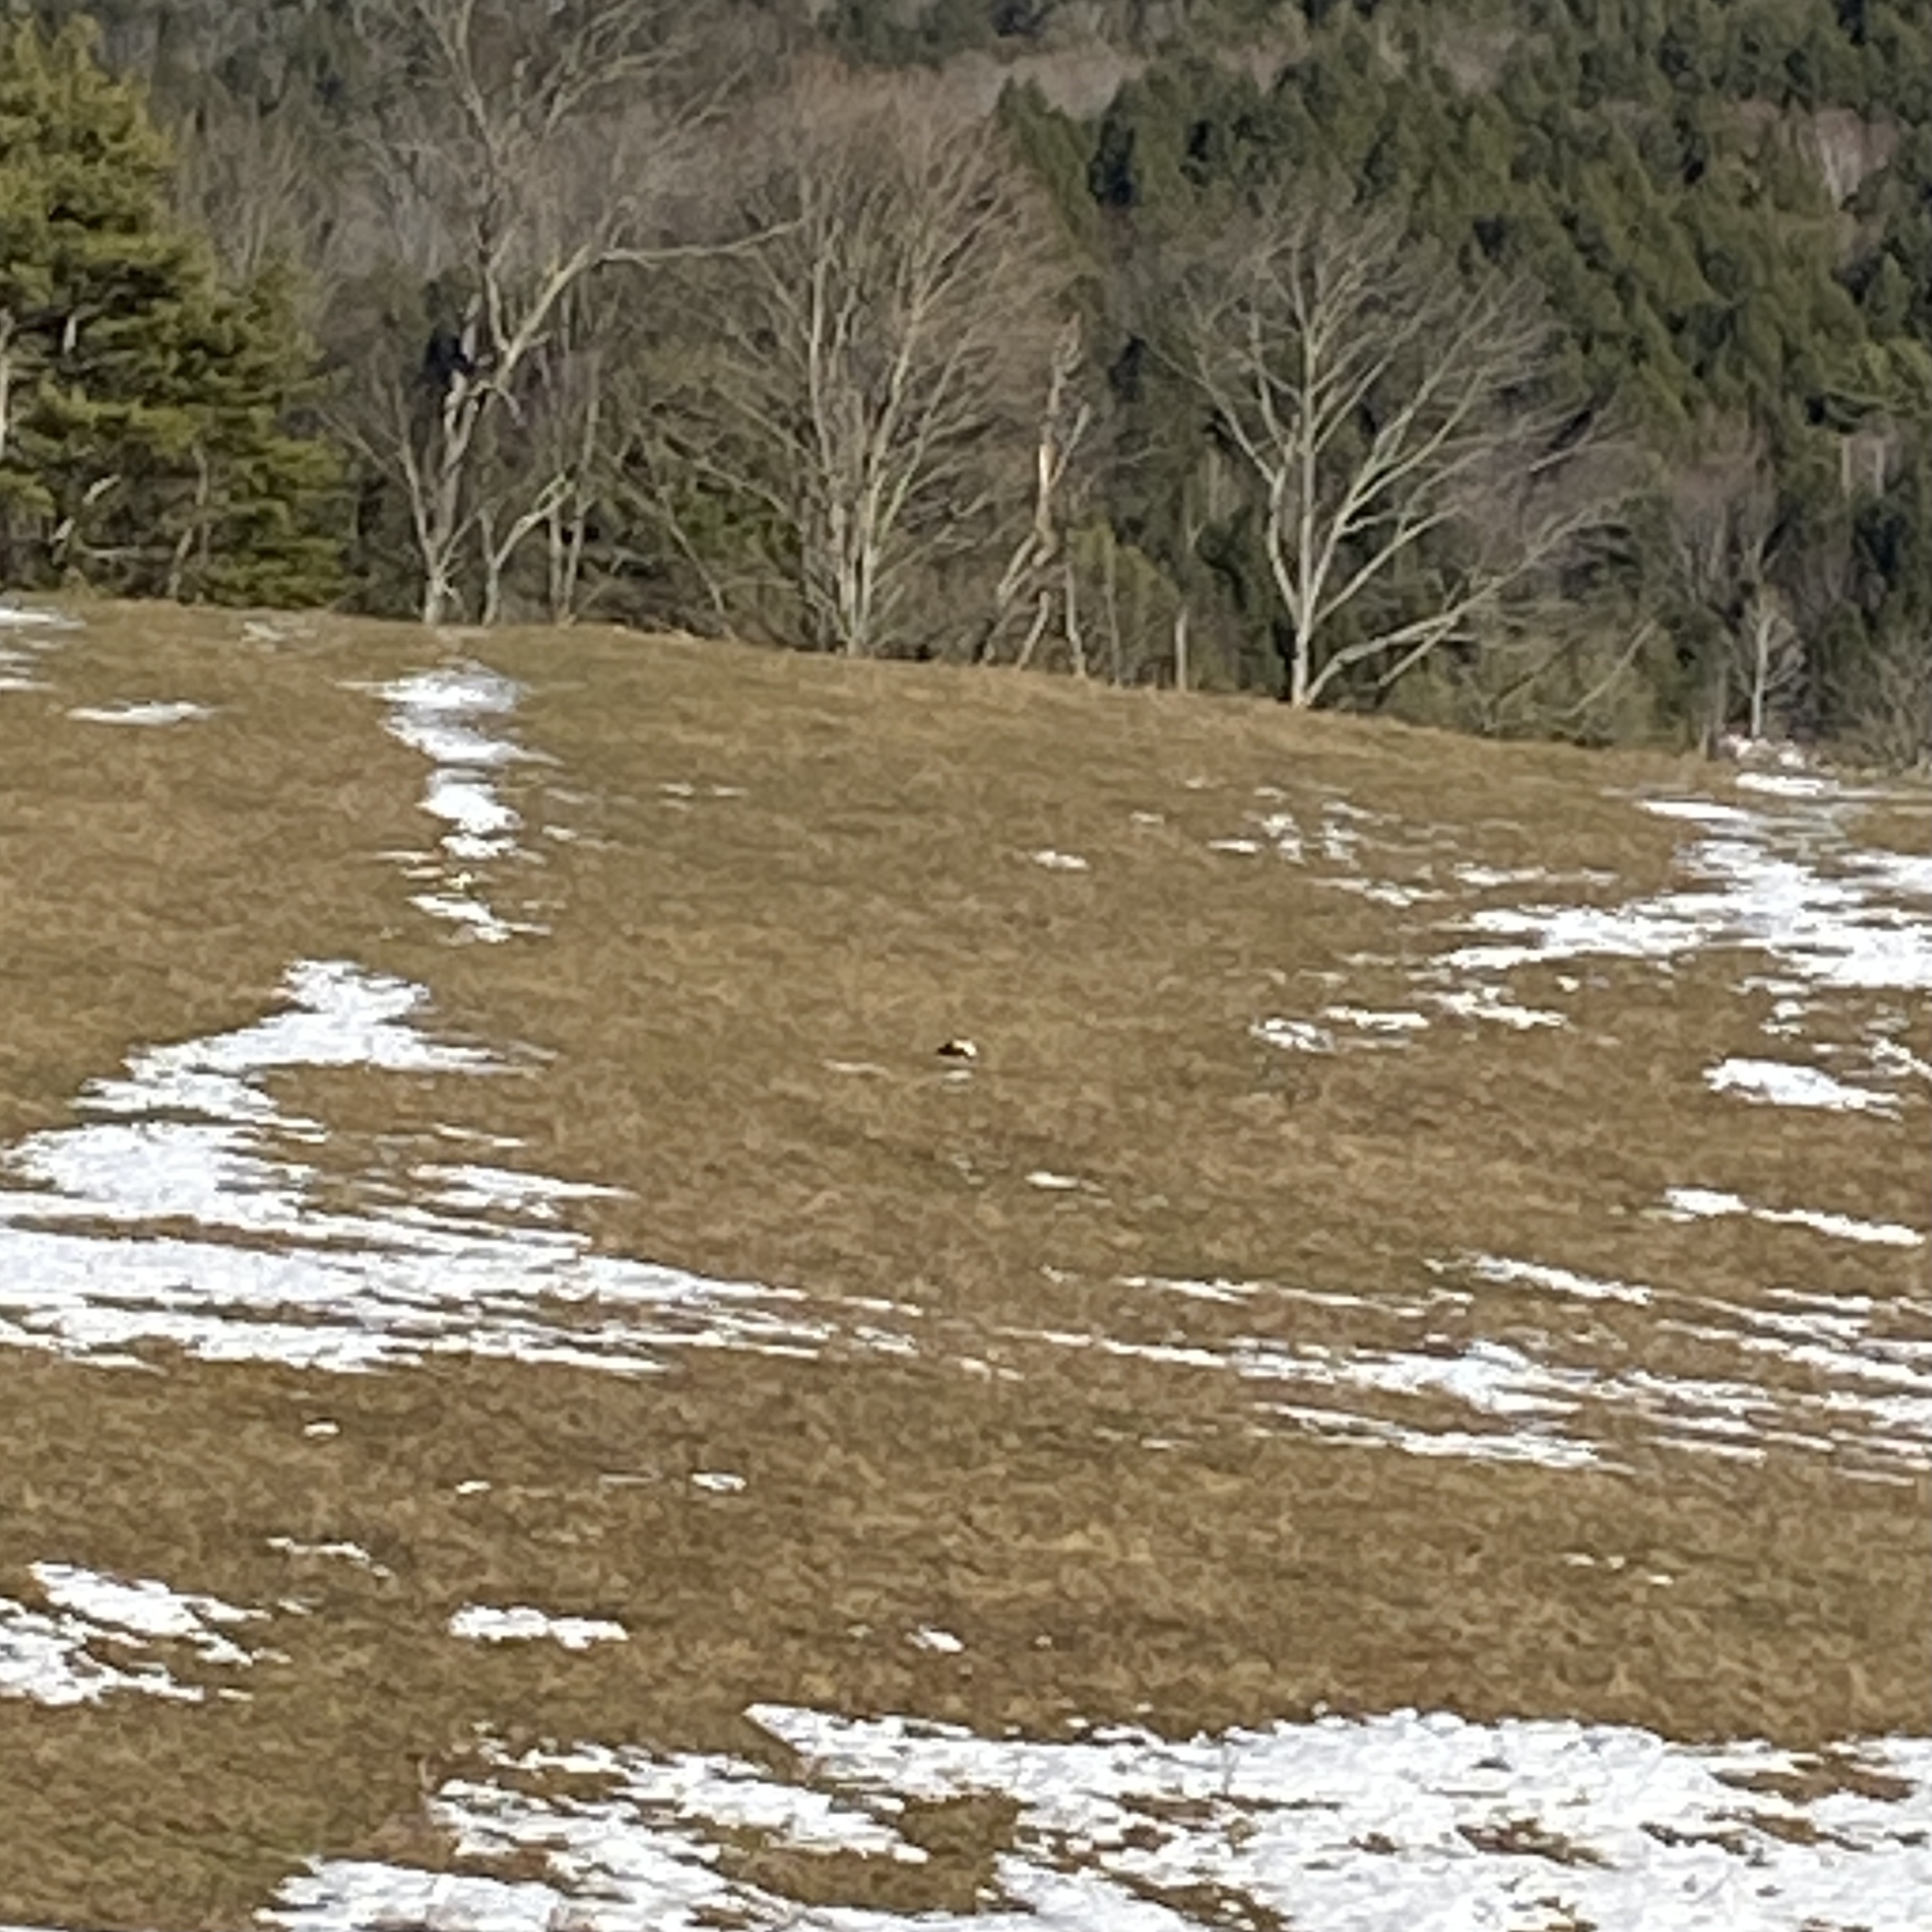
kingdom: Animalia
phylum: Chordata
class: Mammalia
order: Carnivora
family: Mephitidae
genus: Mephitis
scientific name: Mephitis mephitis
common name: Striped skunk
